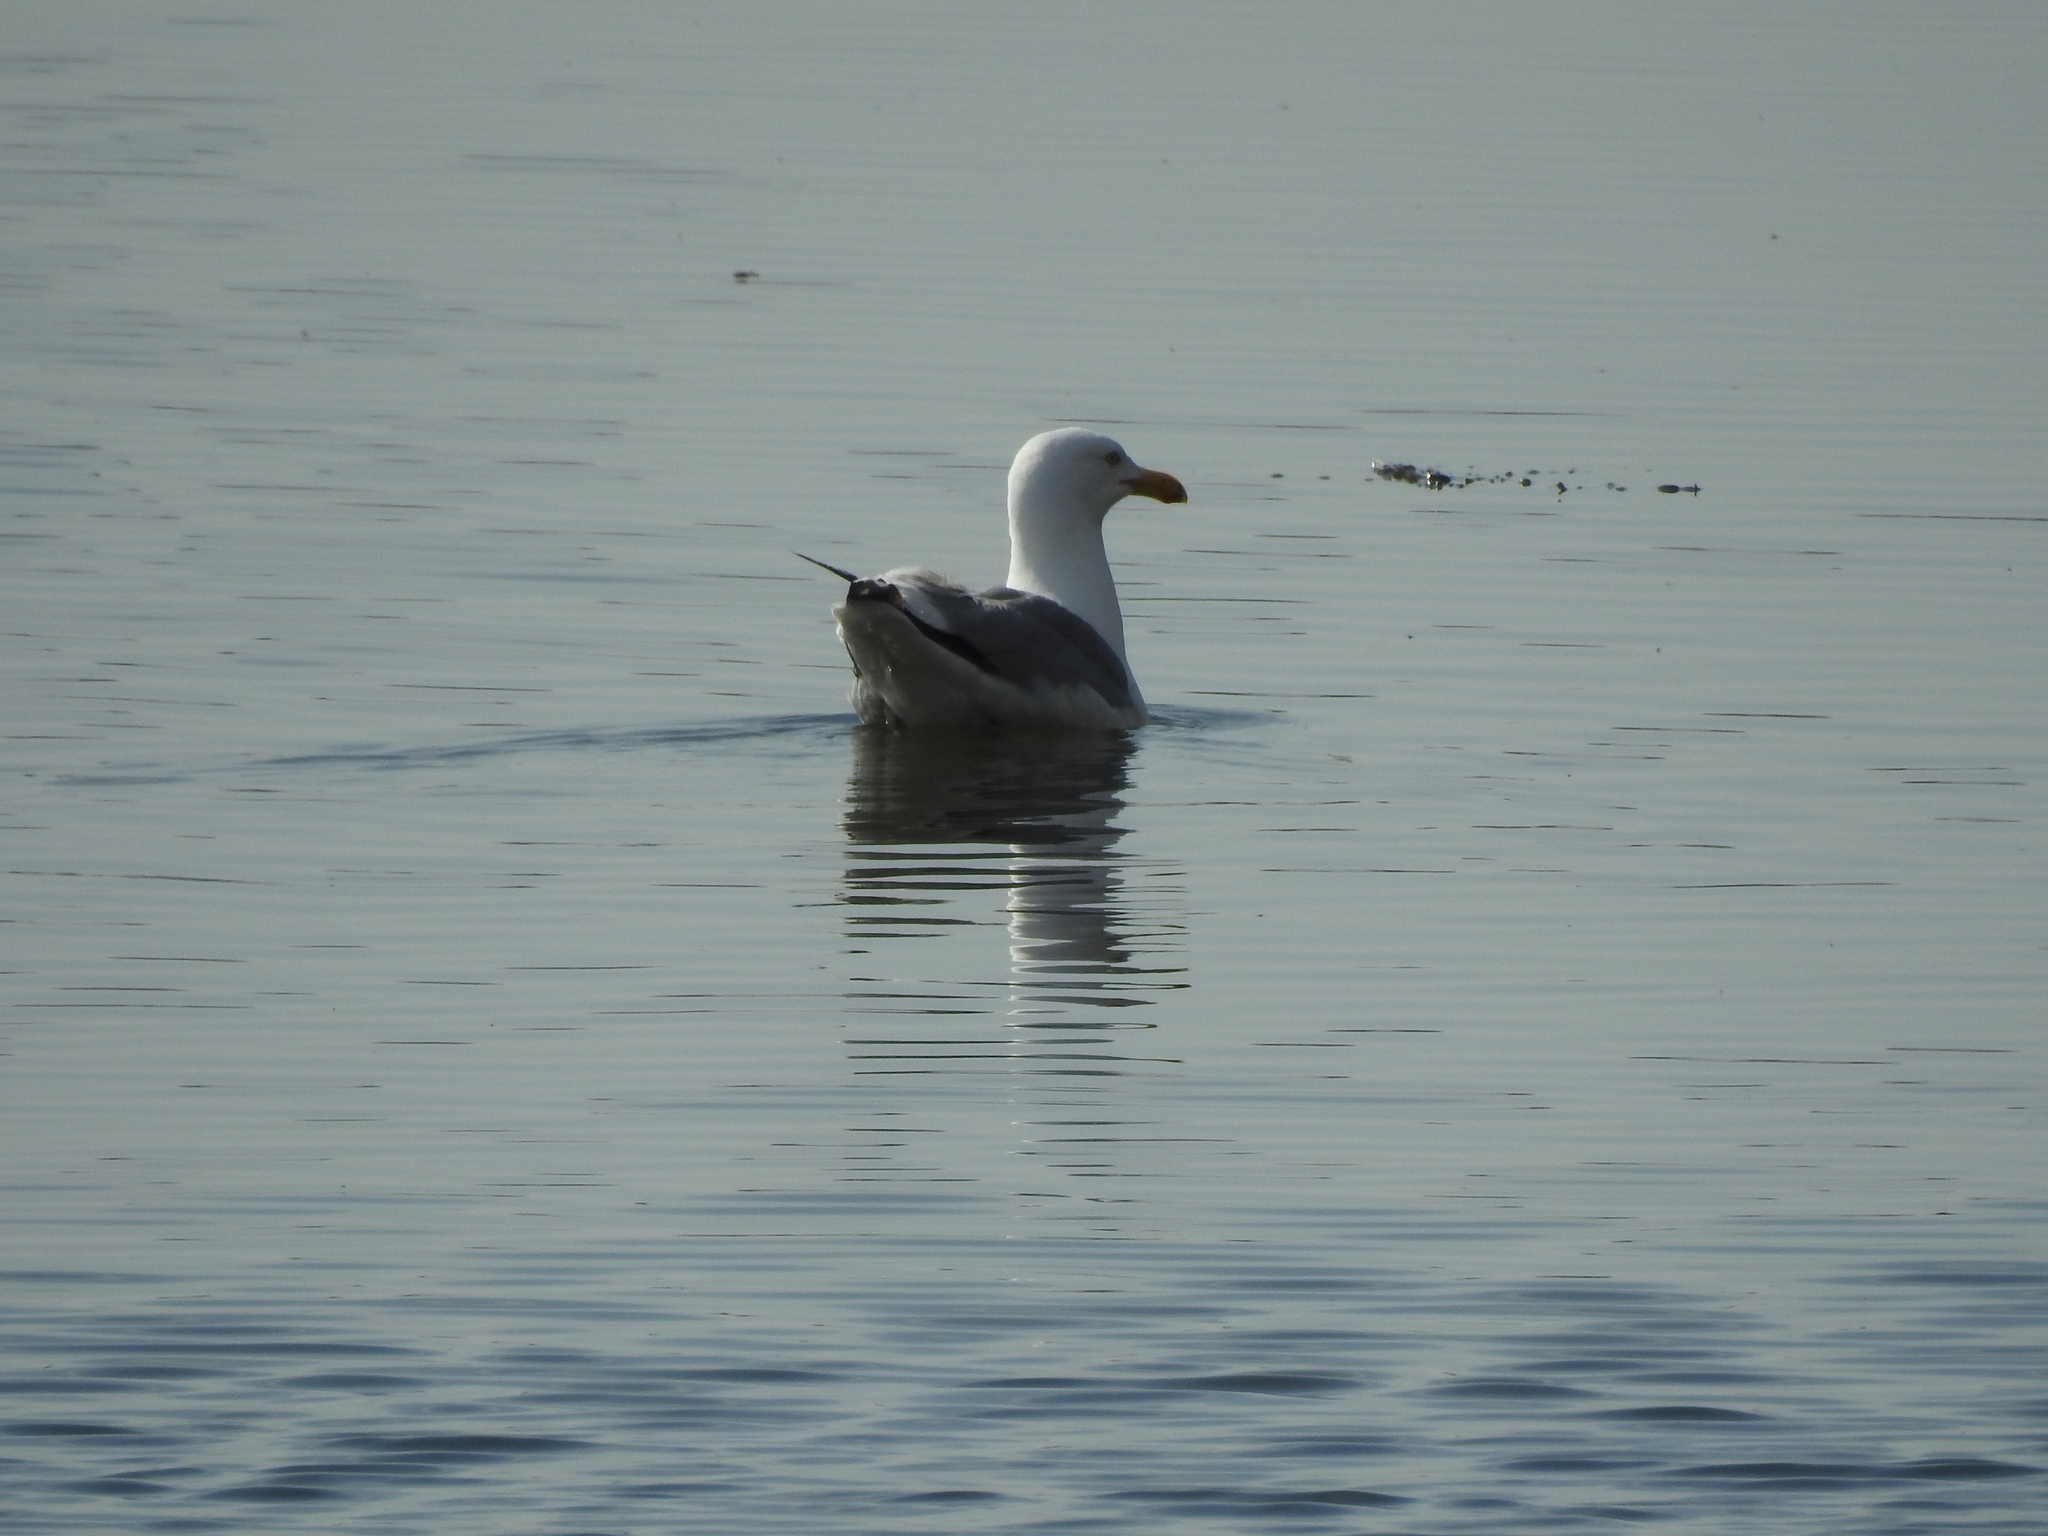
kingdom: Animalia
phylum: Chordata
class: Aves
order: Charadriiformes
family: Laridae
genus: Larus
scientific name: Larus argentatus
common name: Herring gull
